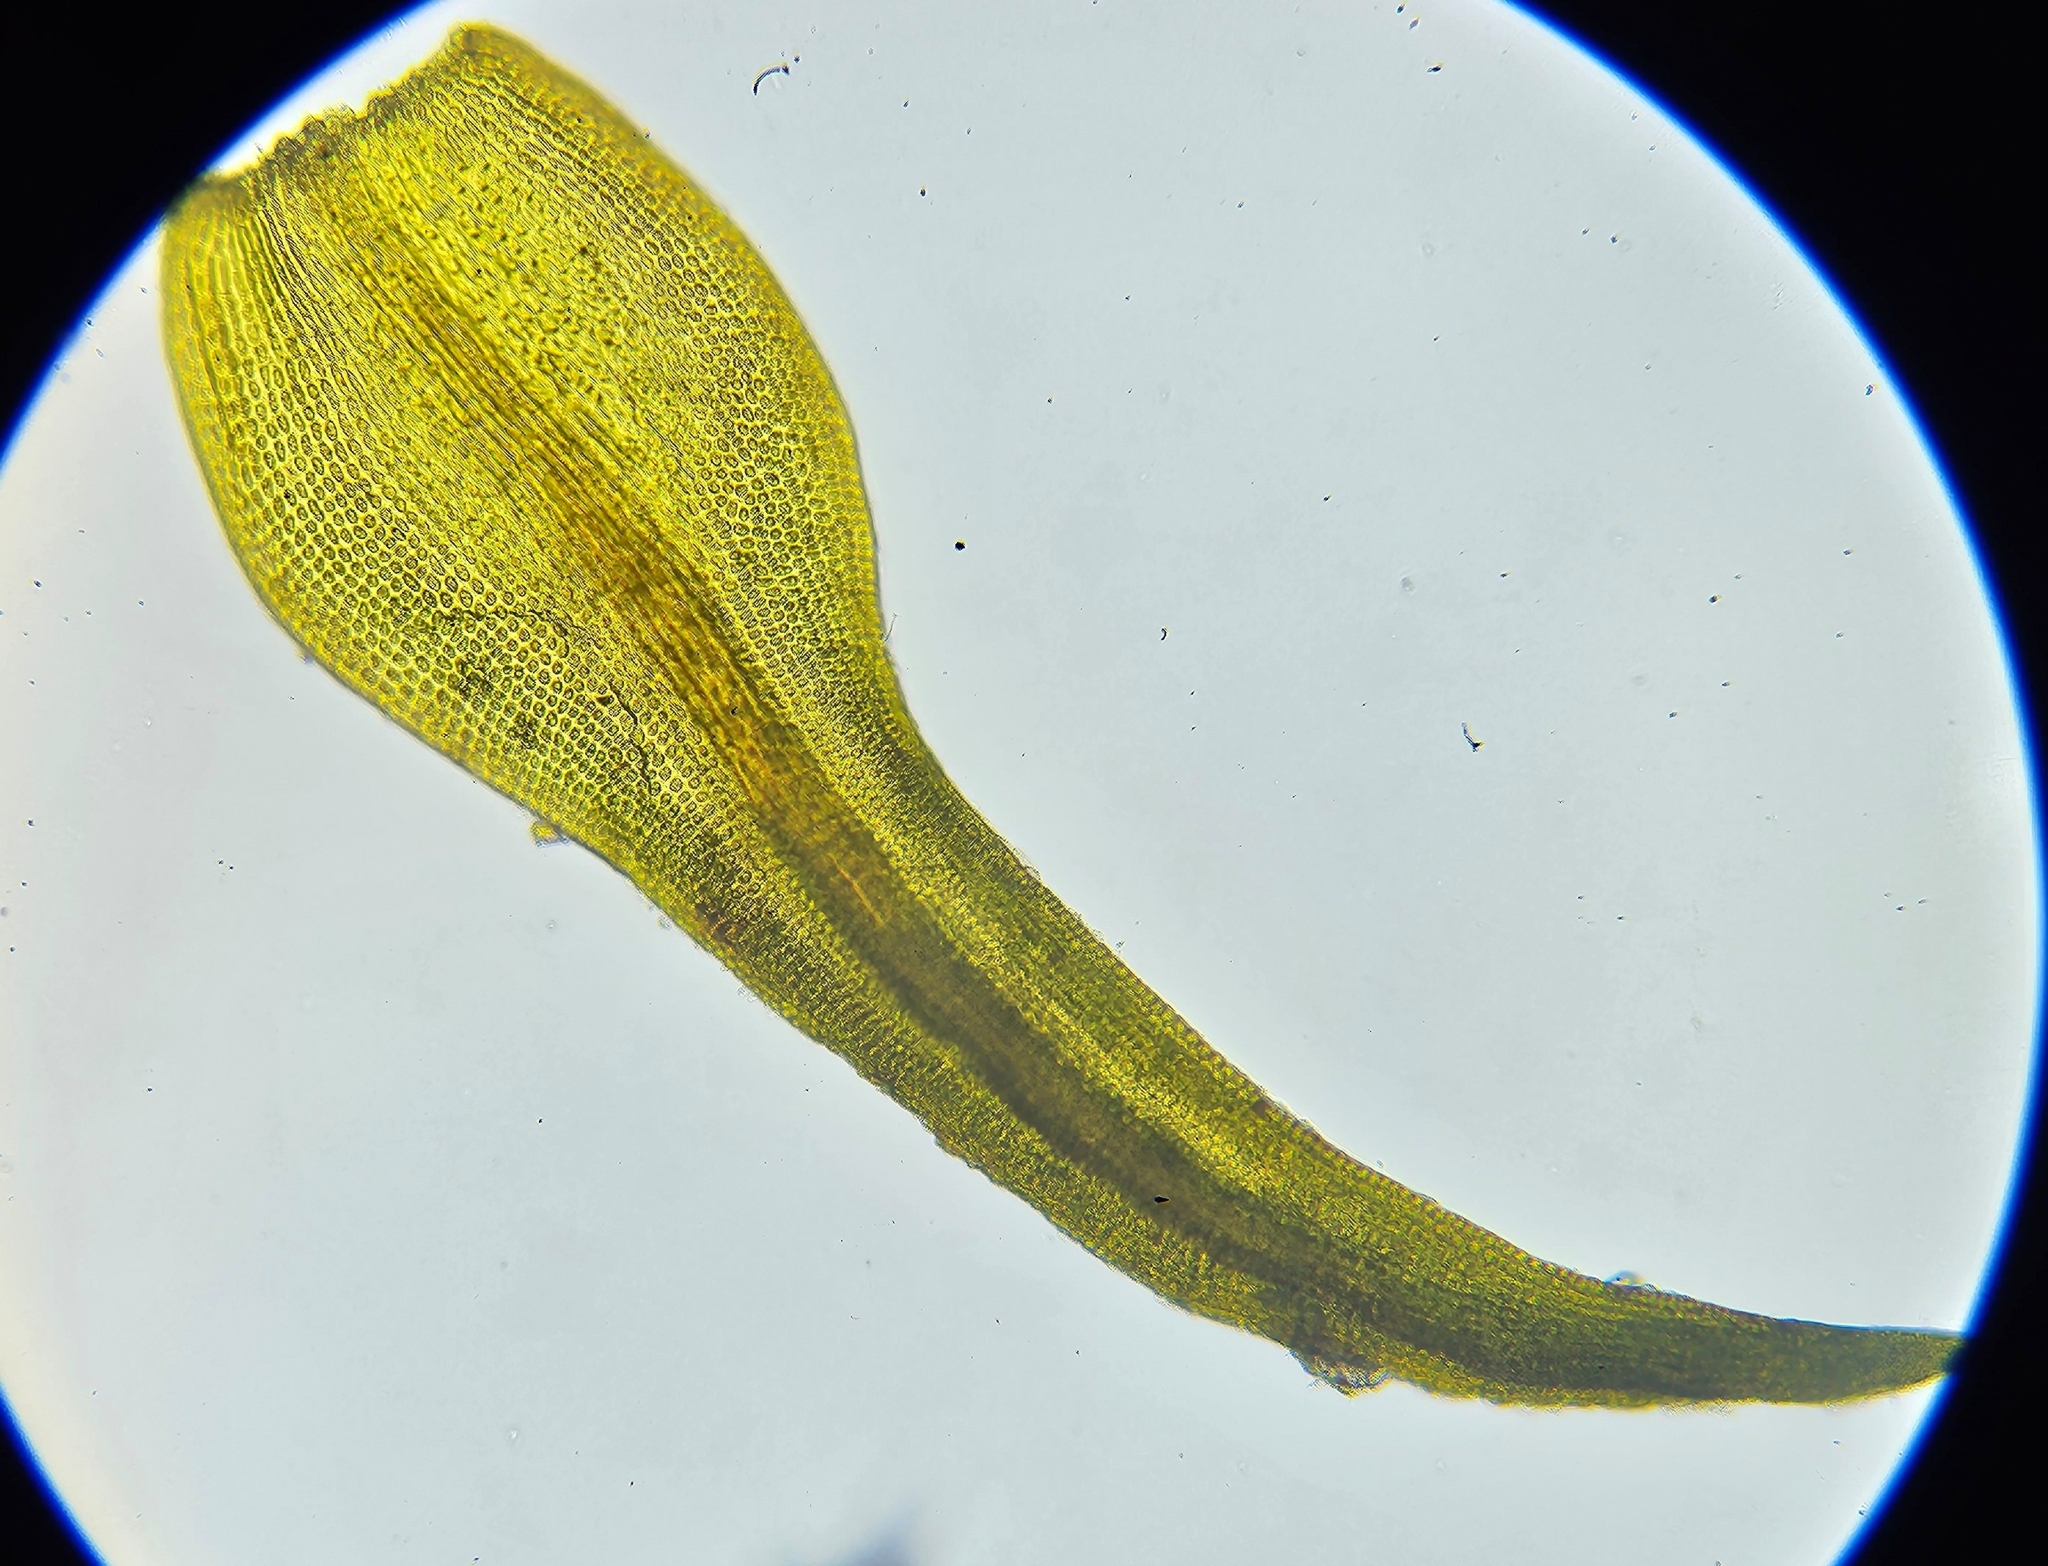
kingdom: Plantae
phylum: Bryophyta
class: Andreaeopsida
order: Andreaeales
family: Andreaeaceae
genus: Andreaea
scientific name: Andreaea rothii
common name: Dusky rock moss
